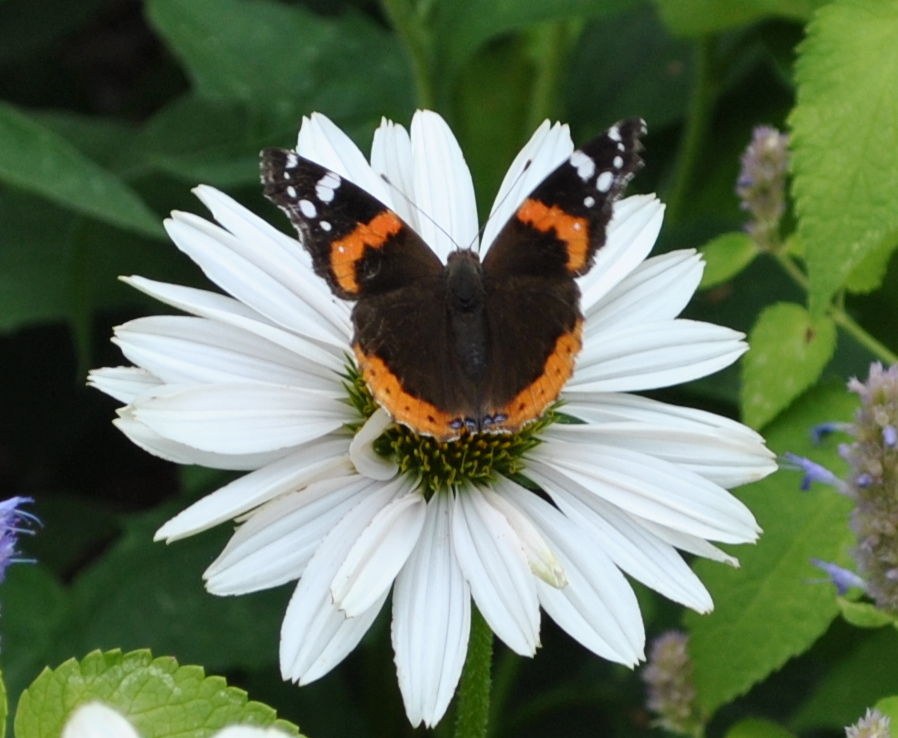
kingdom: Animalia
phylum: Arthropoda
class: Insecta
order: Lepidoptera
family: Nymphalidae
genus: Vanessa
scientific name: Vanessa atalanta
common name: Red admiral
